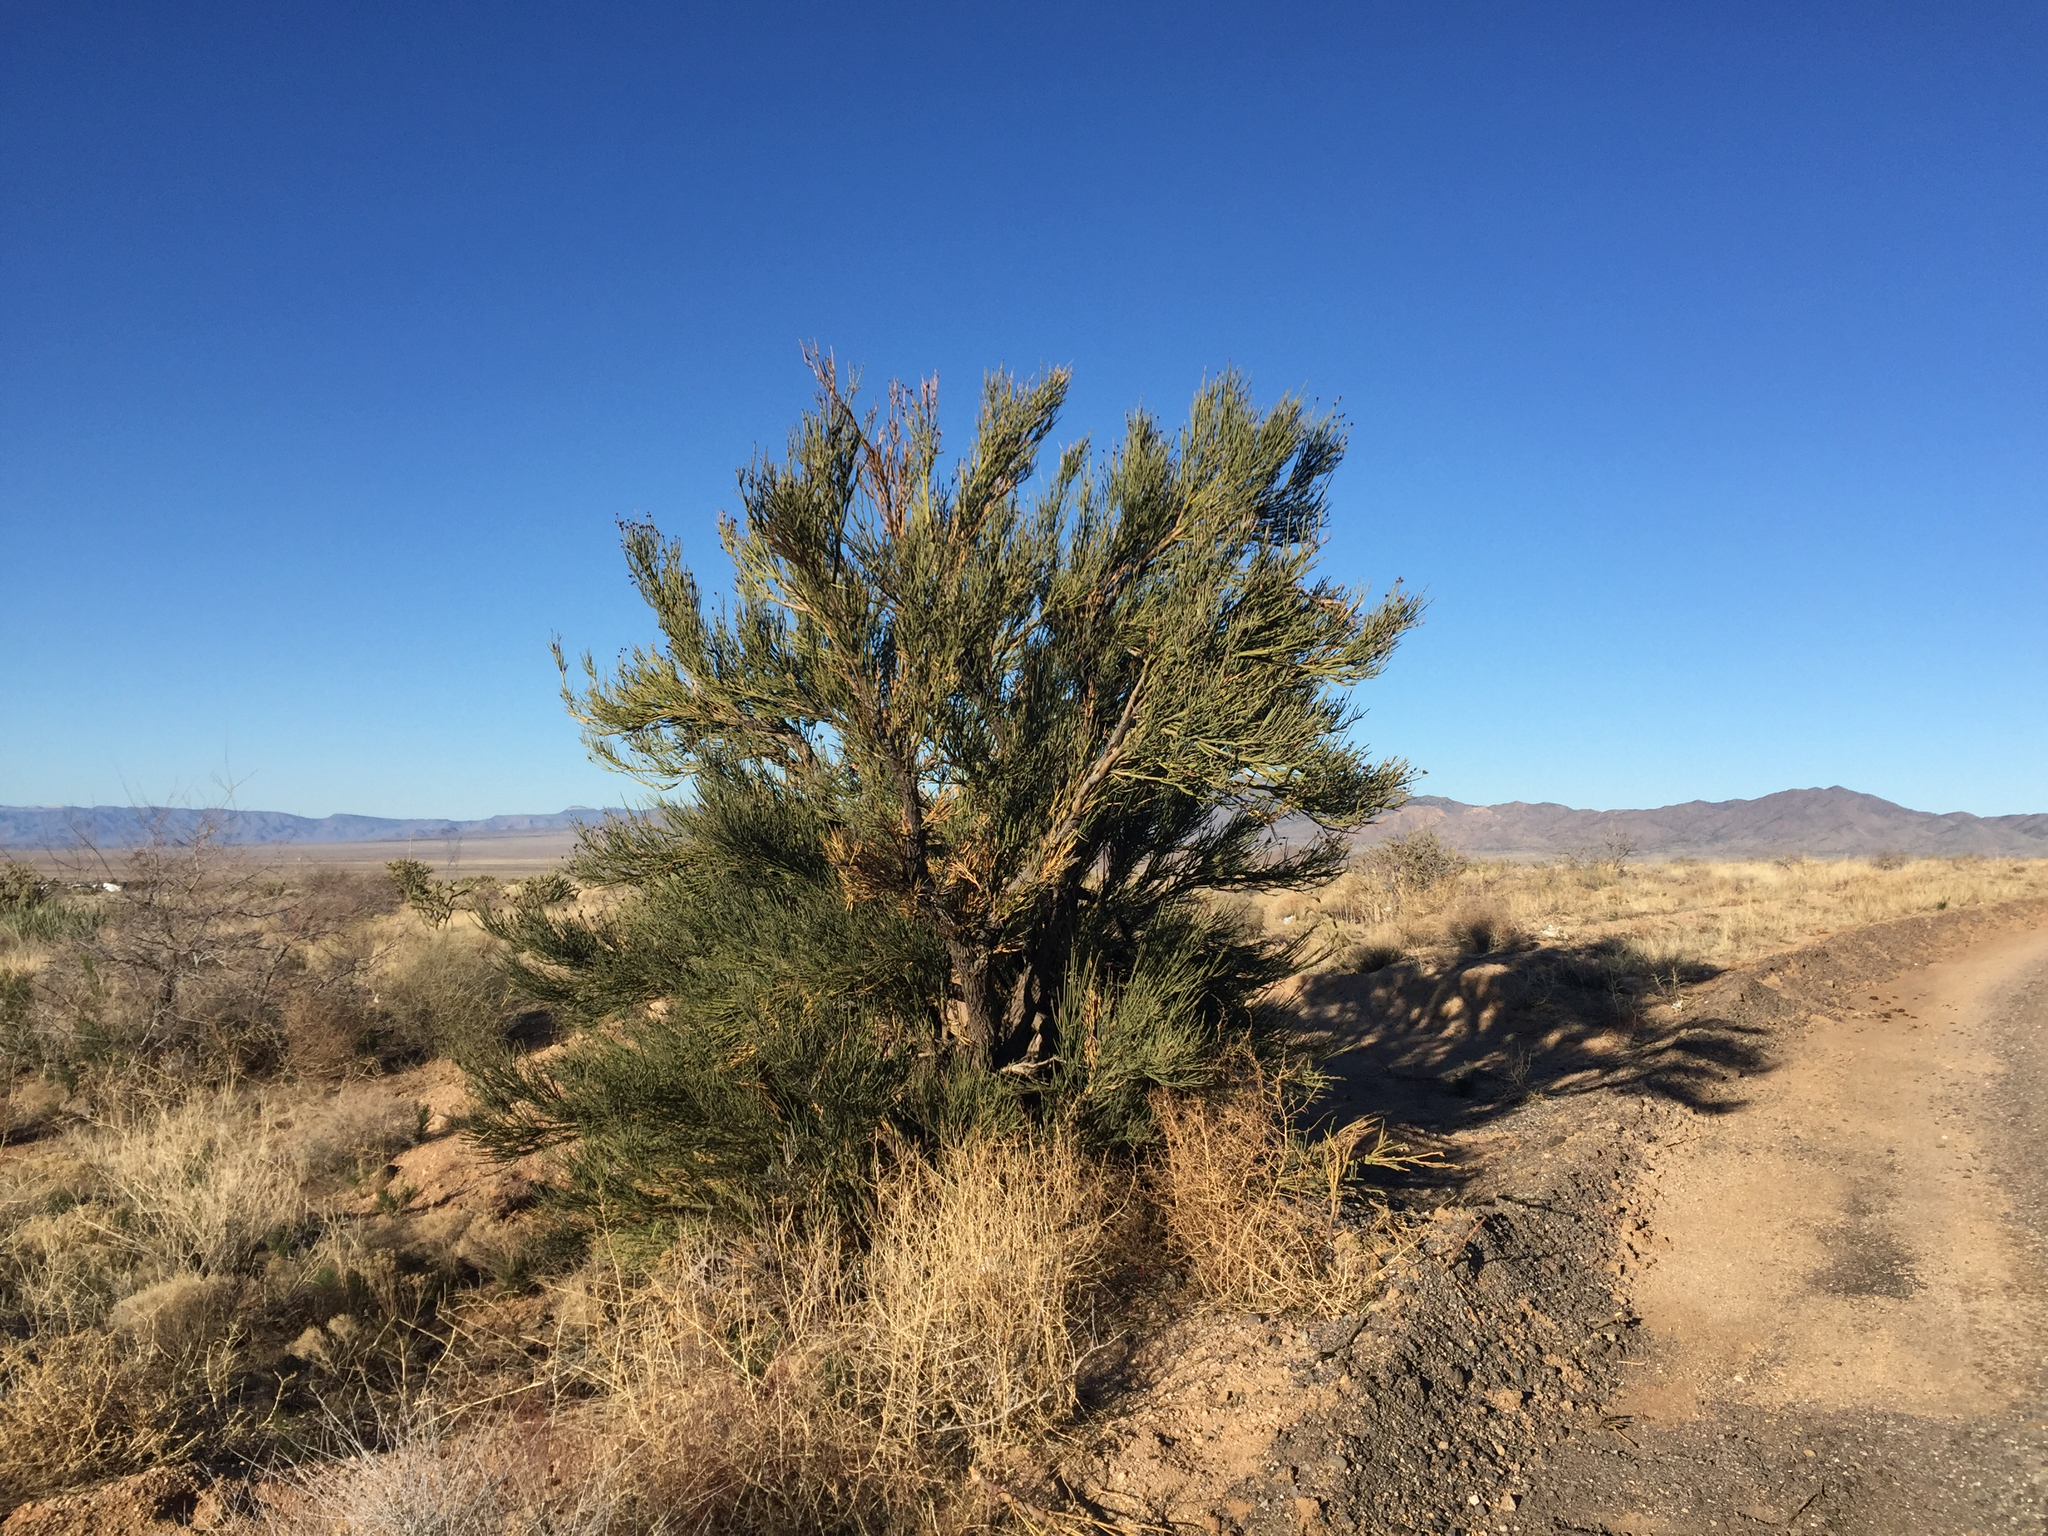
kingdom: Plantae
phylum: Tracheophyta
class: Magnoliopsida
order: Celastrales
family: Celastraceae
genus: Canotia
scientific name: Canotia holacantha
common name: Crucifixion thorns
